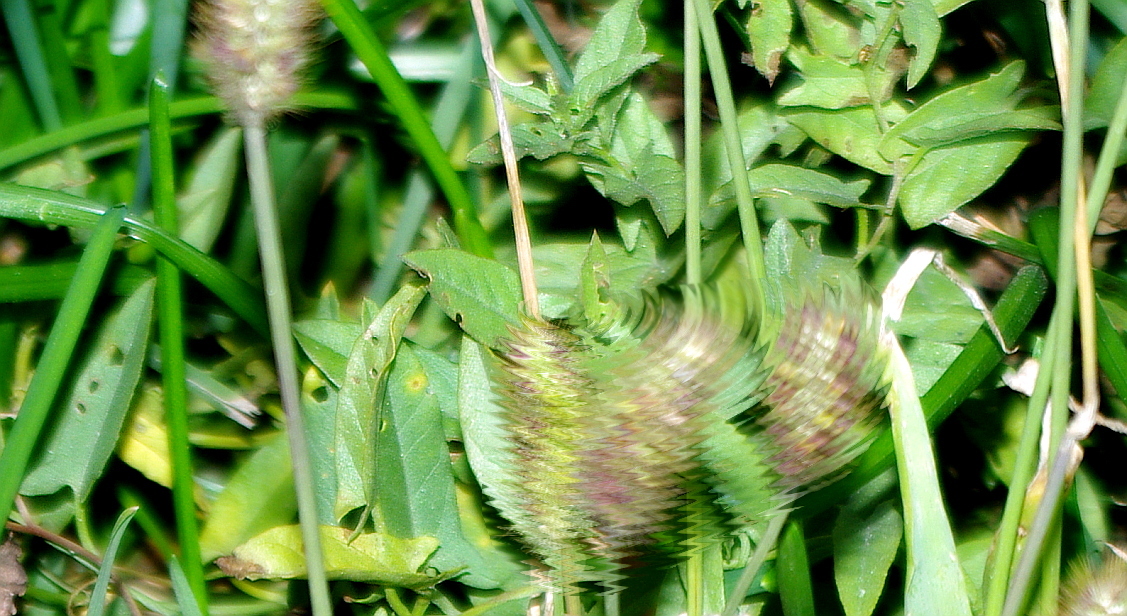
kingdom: Plantae
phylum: Tracheophyta
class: Magnoliopsida
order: Solanales
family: Convolvulaceae
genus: Convolvulus
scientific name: Convolvulus arvensis
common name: Field bindweed
